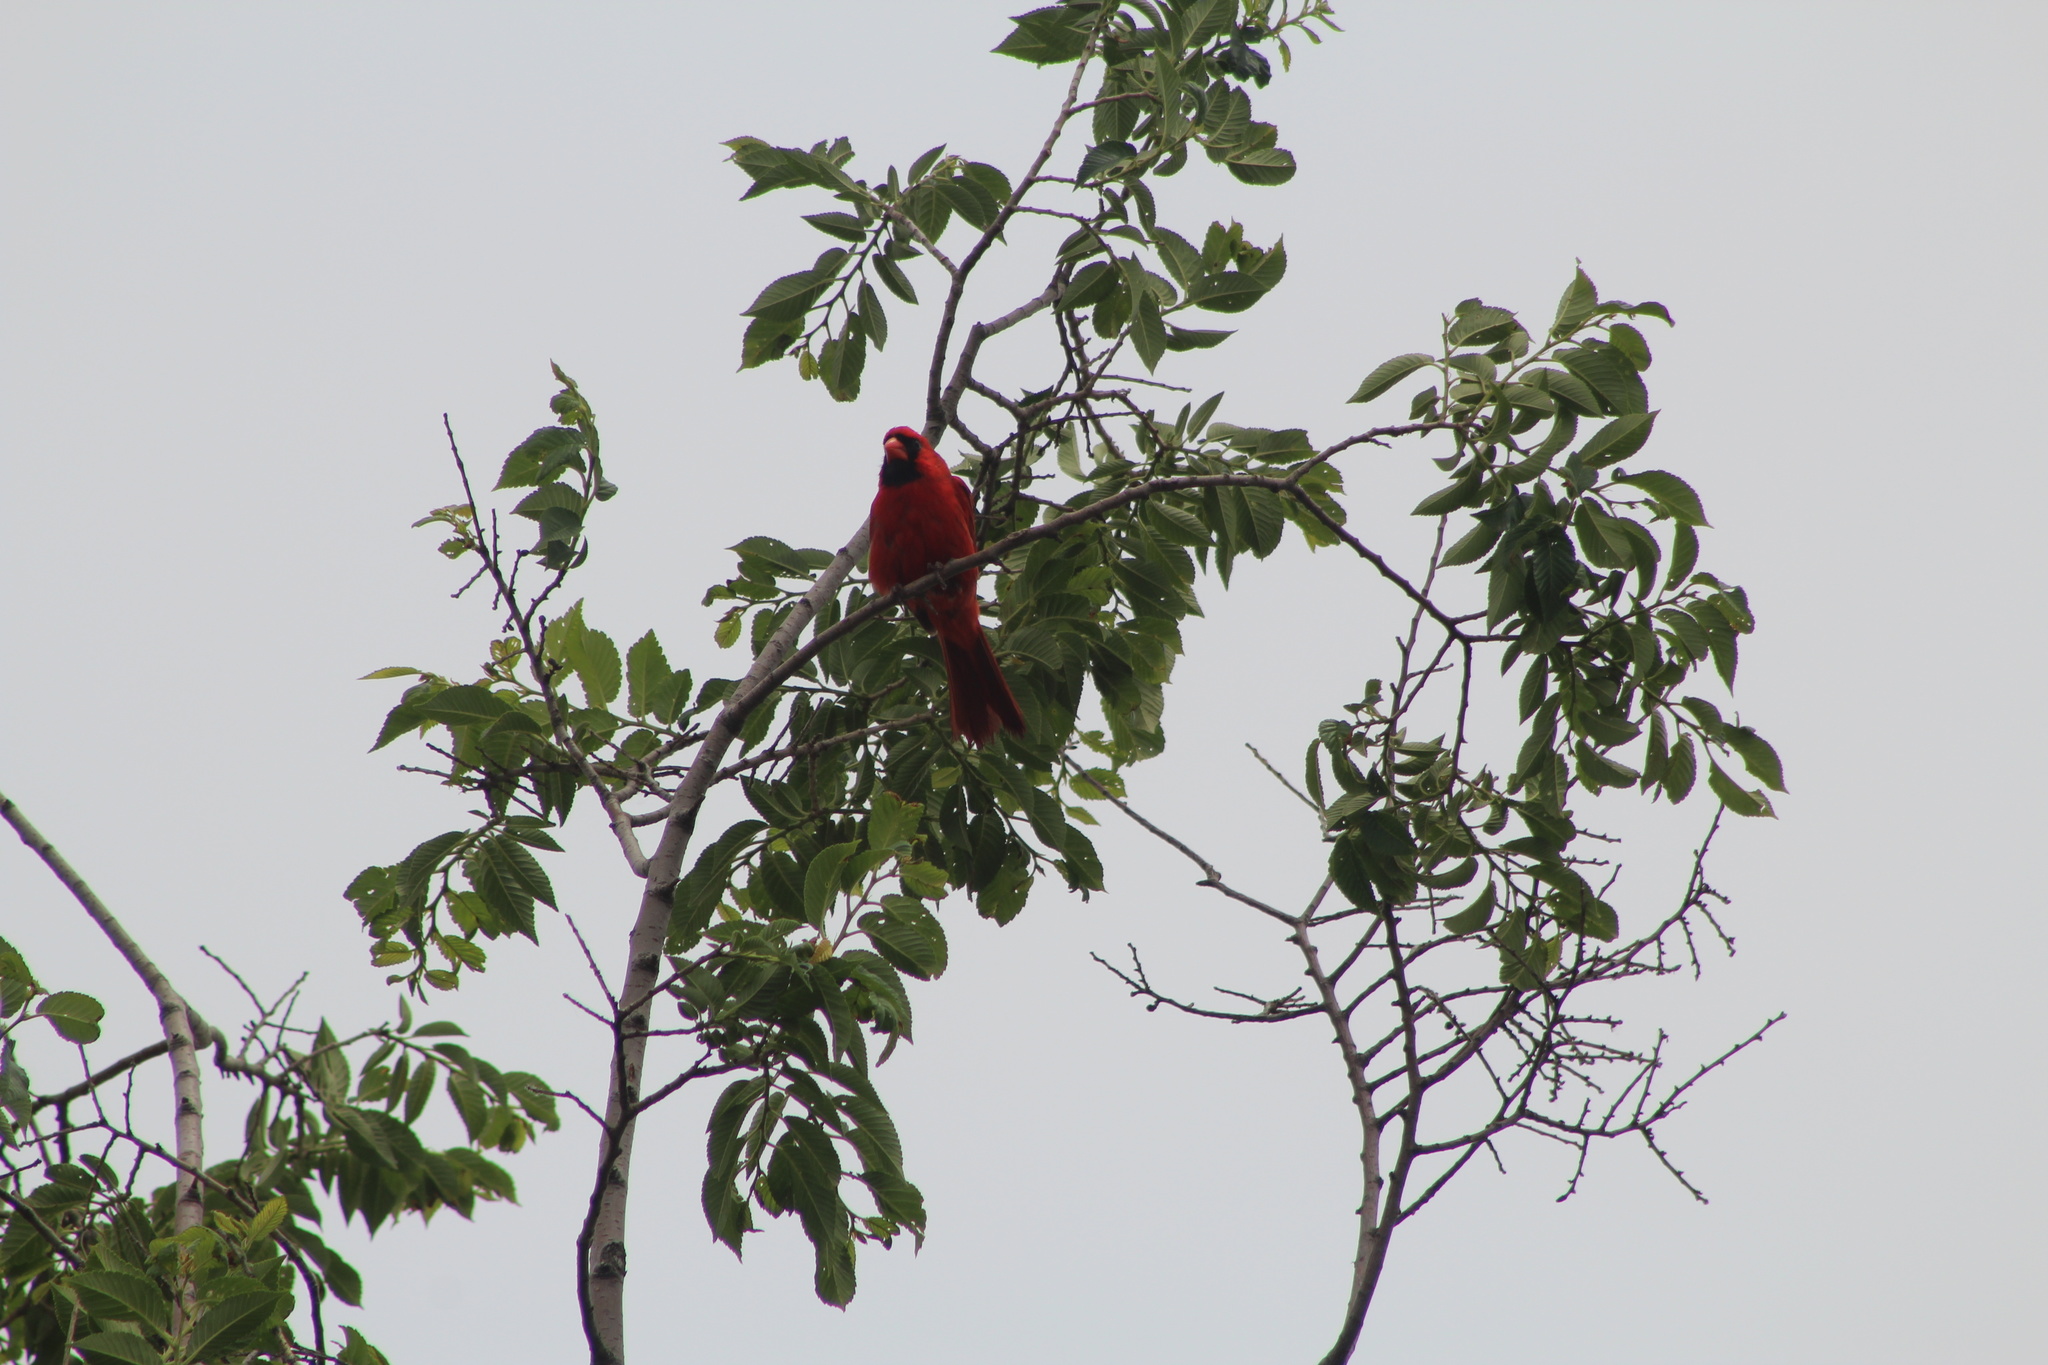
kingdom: Animalia
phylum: Chordata
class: Aves
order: Passeriformes
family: Cardinalidae
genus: Cardinalis
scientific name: Cardinalis cardinalis
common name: Northern cardinal
